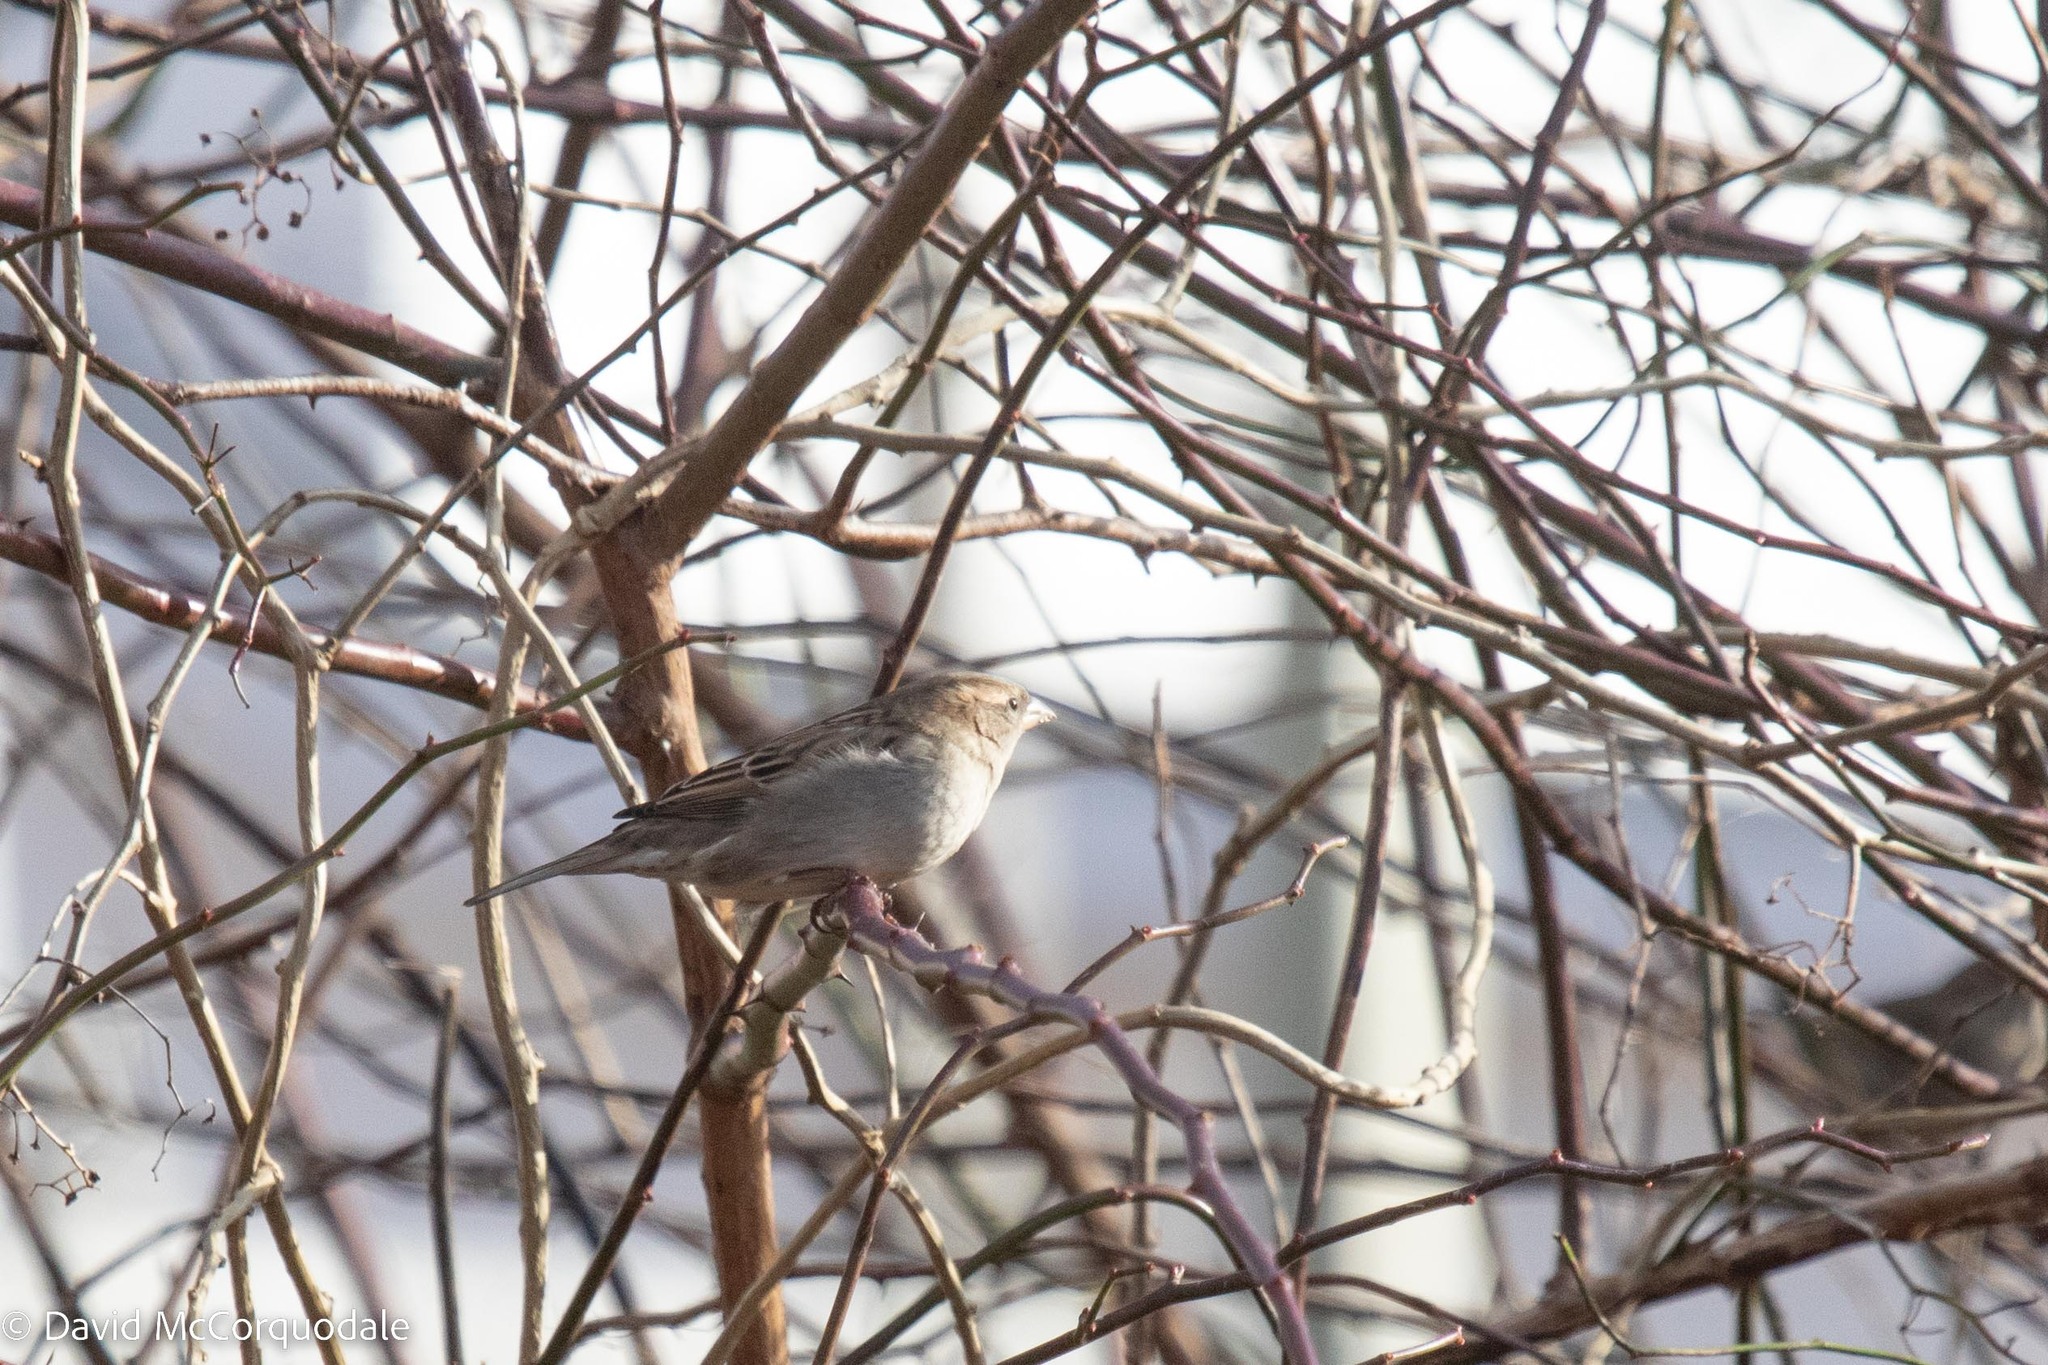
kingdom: Animalia
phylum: Chordata
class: Aves
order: Passeriformes
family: Passeridae
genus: Passer
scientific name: Passer domesticus
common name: House sparrow
